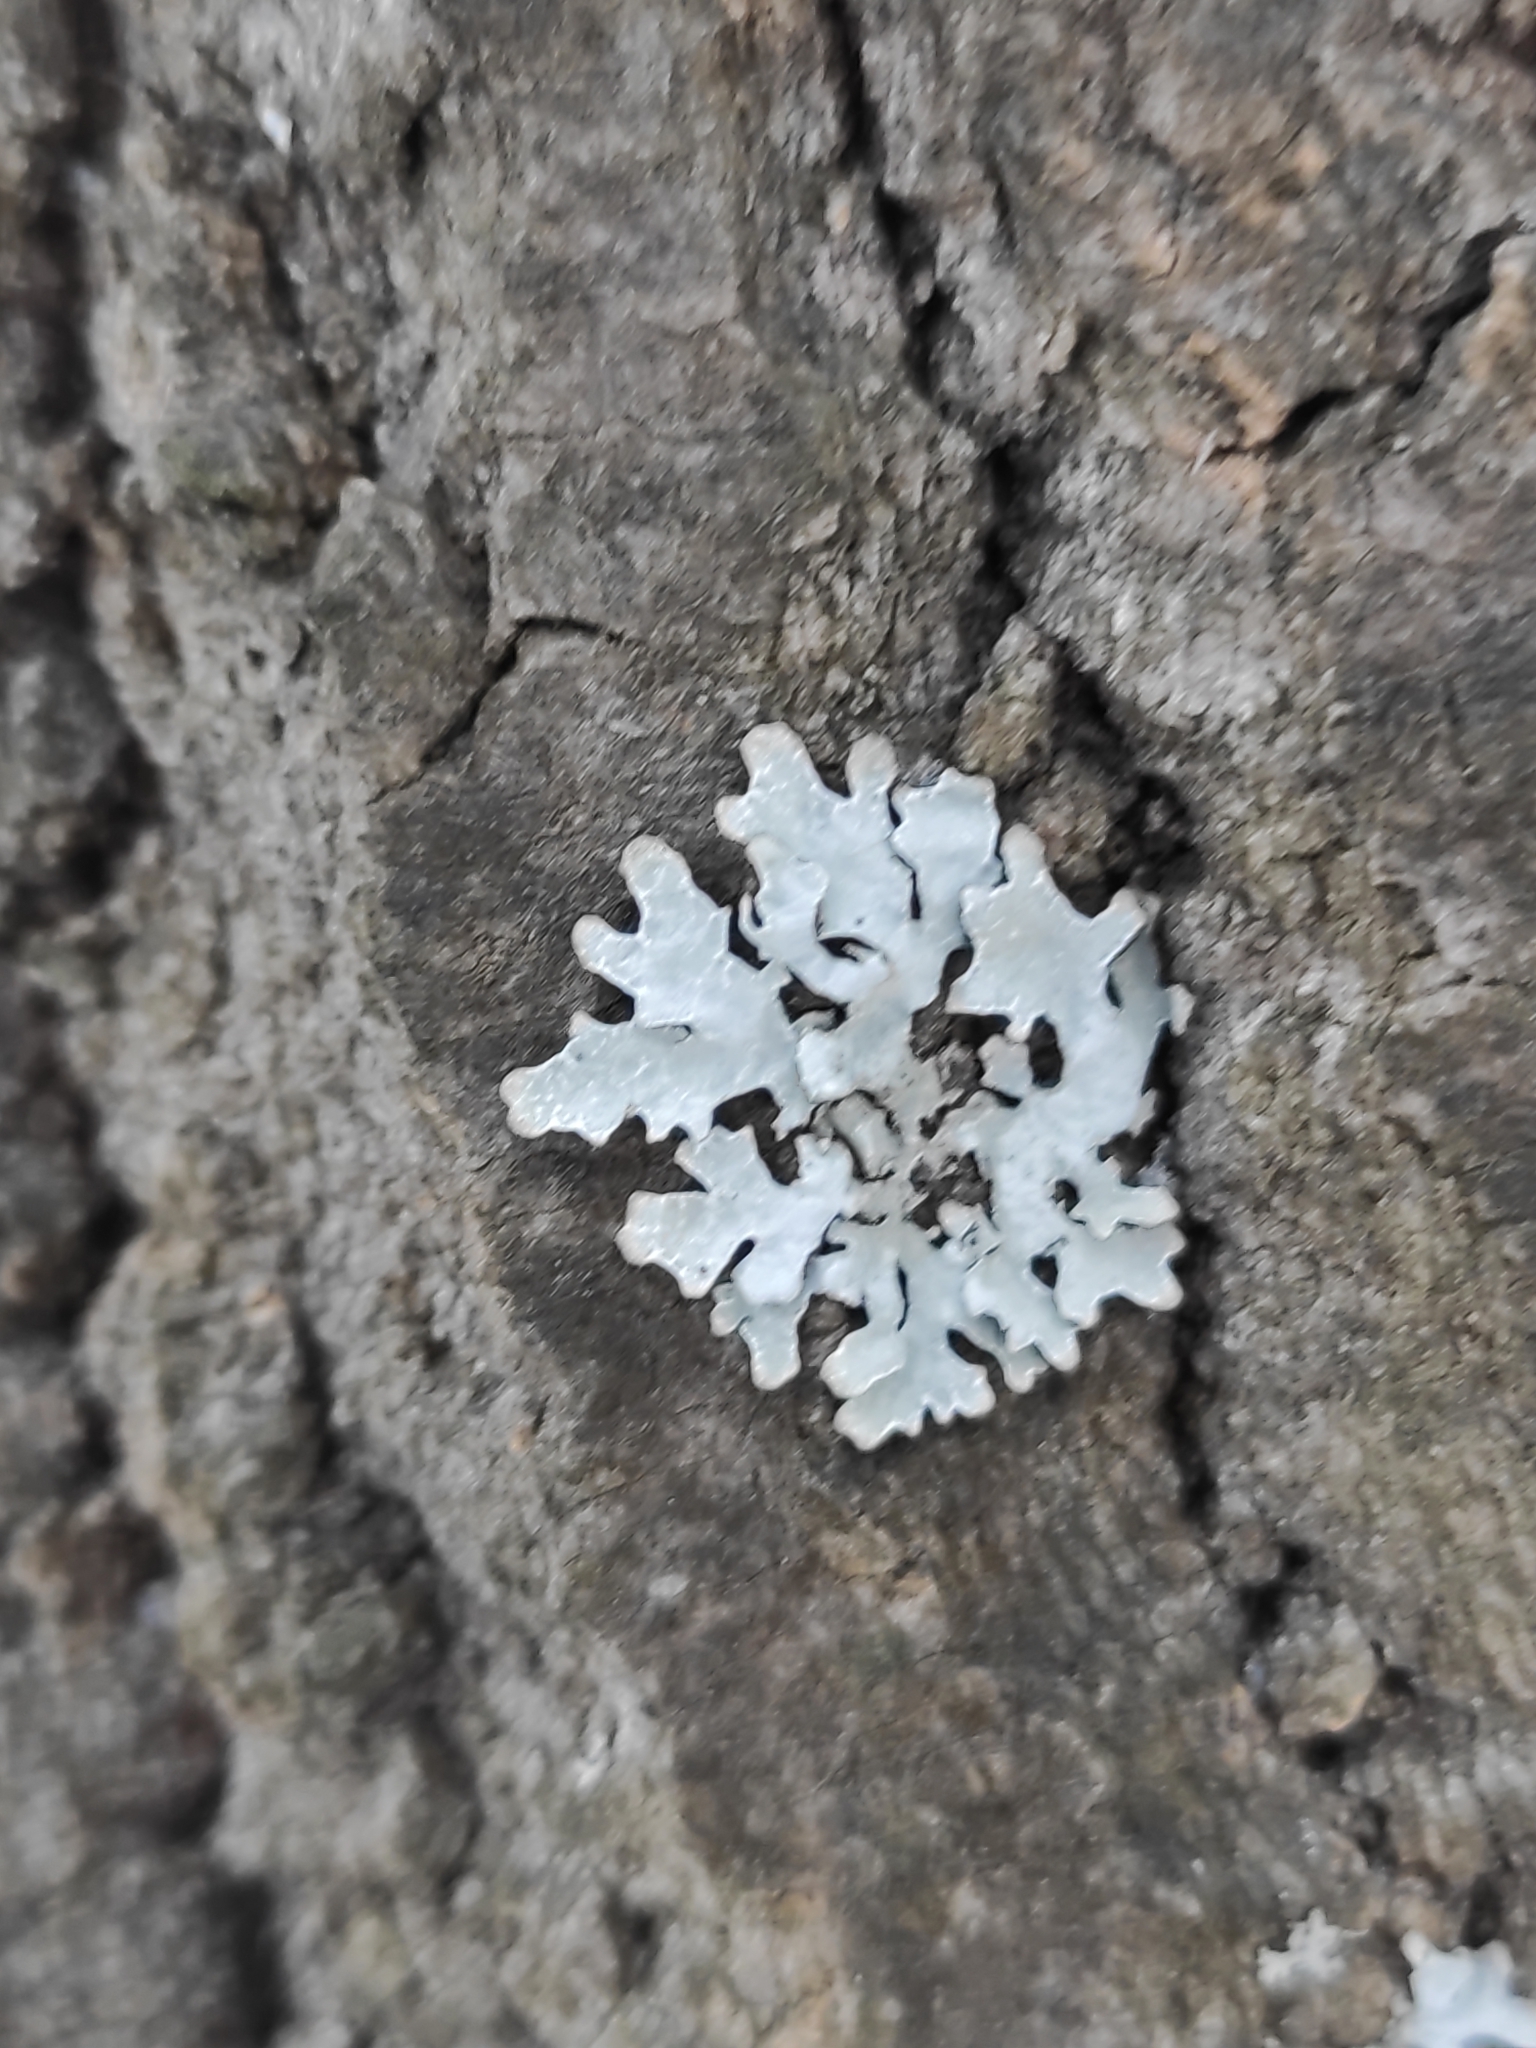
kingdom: Fungi
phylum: Ascomycota
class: Lecanoromycetes
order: Lecanorales
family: Parmeliaceae
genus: Parmelia
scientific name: Parmelia sulcata
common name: Netted shield lichen
